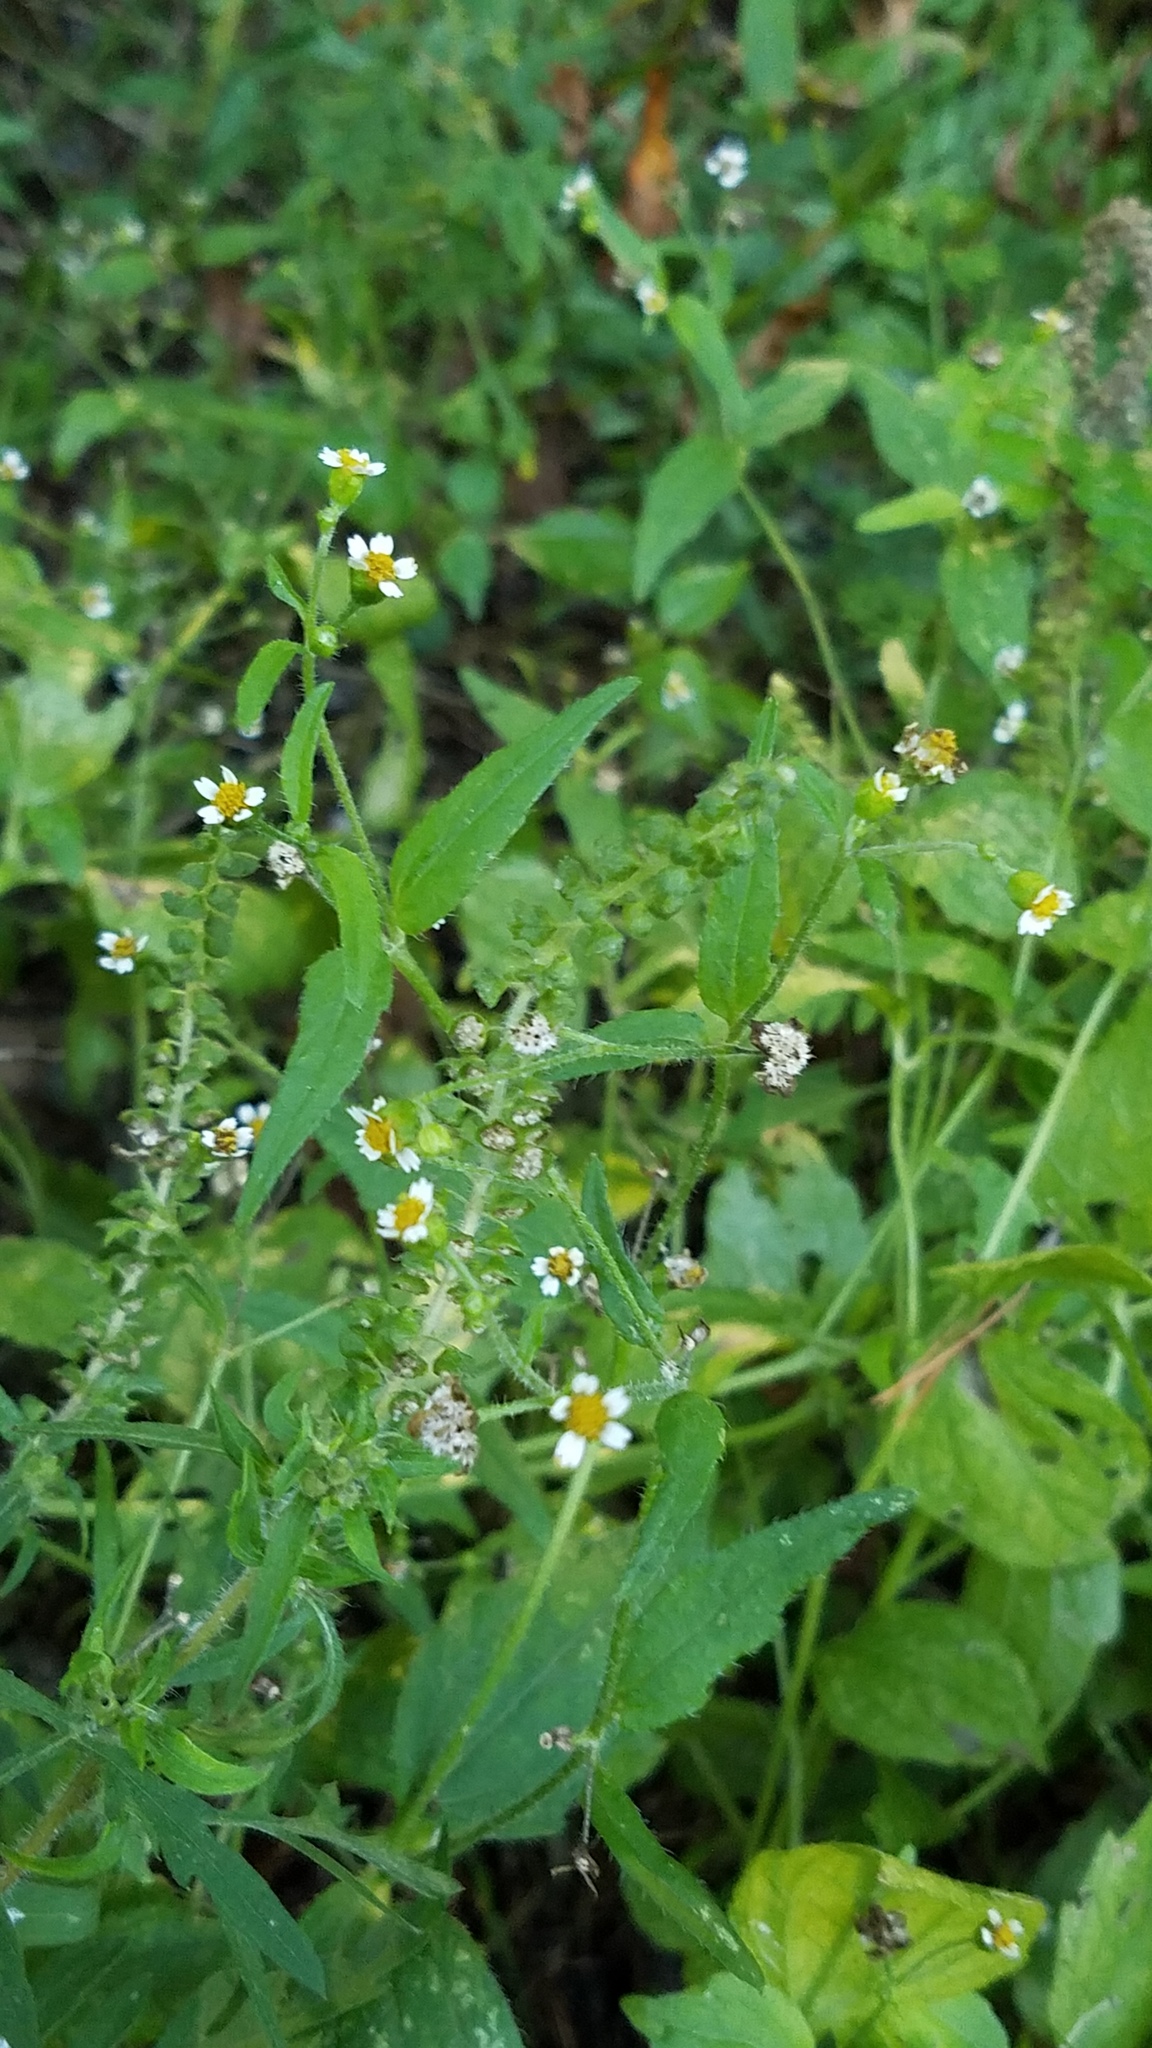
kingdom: Plantae
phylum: Tracheophyta
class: Magnoliopsida
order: Asterales
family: Asteraceae
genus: Galinsoga
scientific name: Galinsoga quadriradiata
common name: Shaggy soldier
